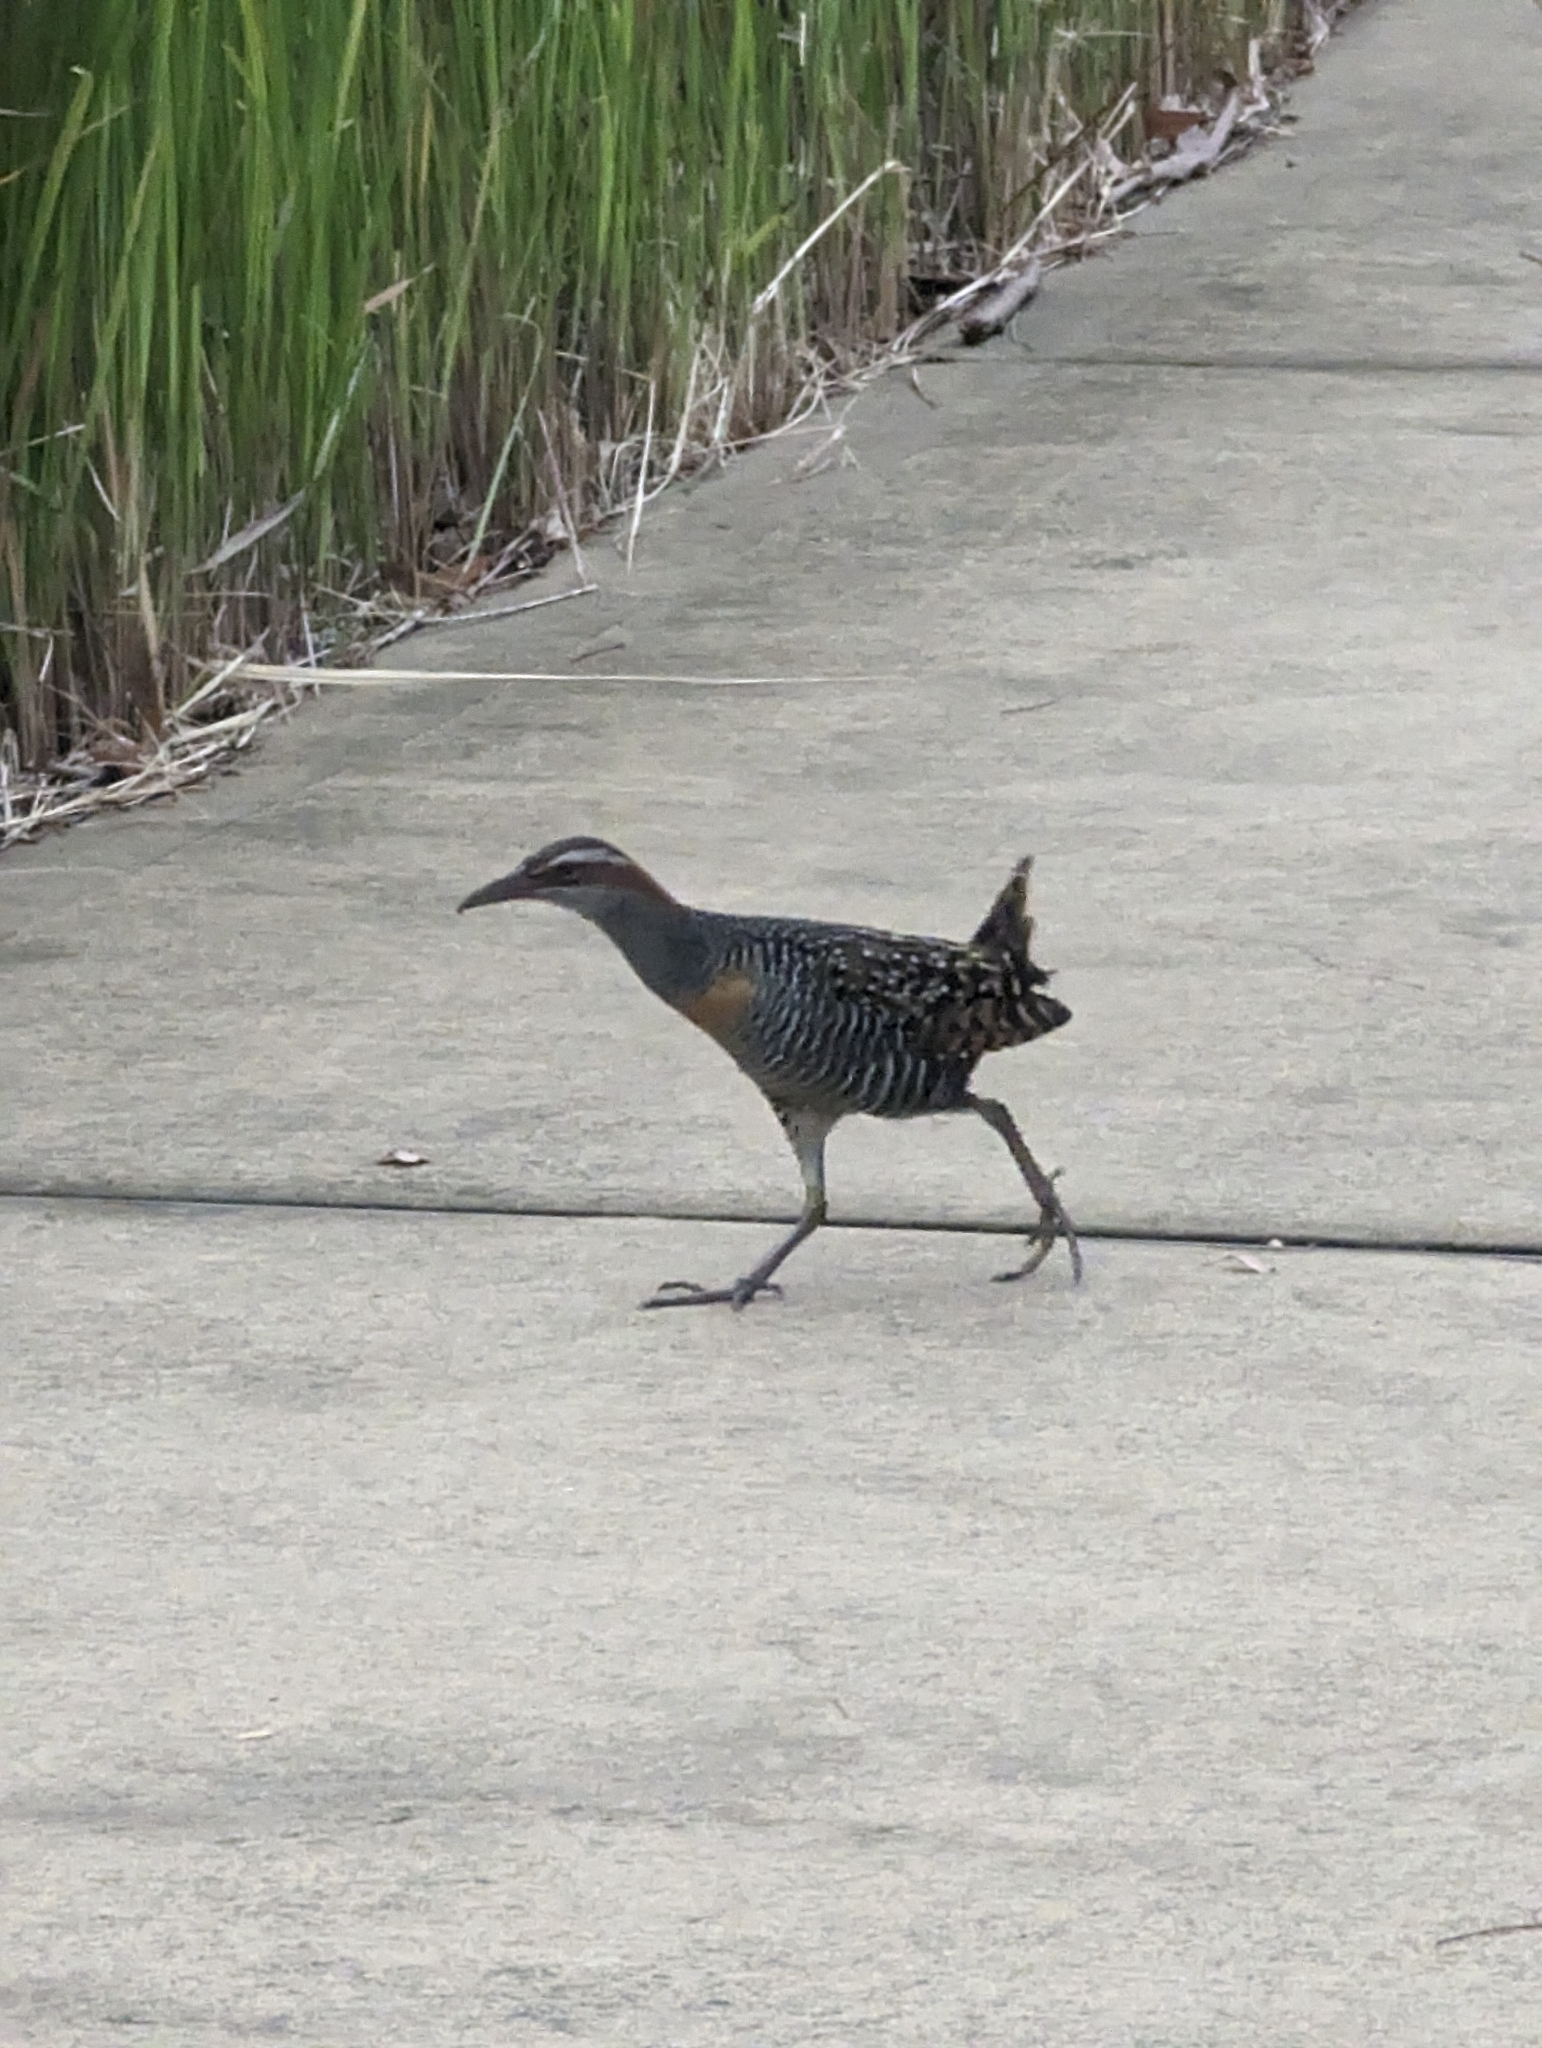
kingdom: Animalia
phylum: Chordata
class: Aves
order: Gruiformes
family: Rallidae
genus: Gallirallus
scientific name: Gallirallus philippensis
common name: Buff-banded rail
